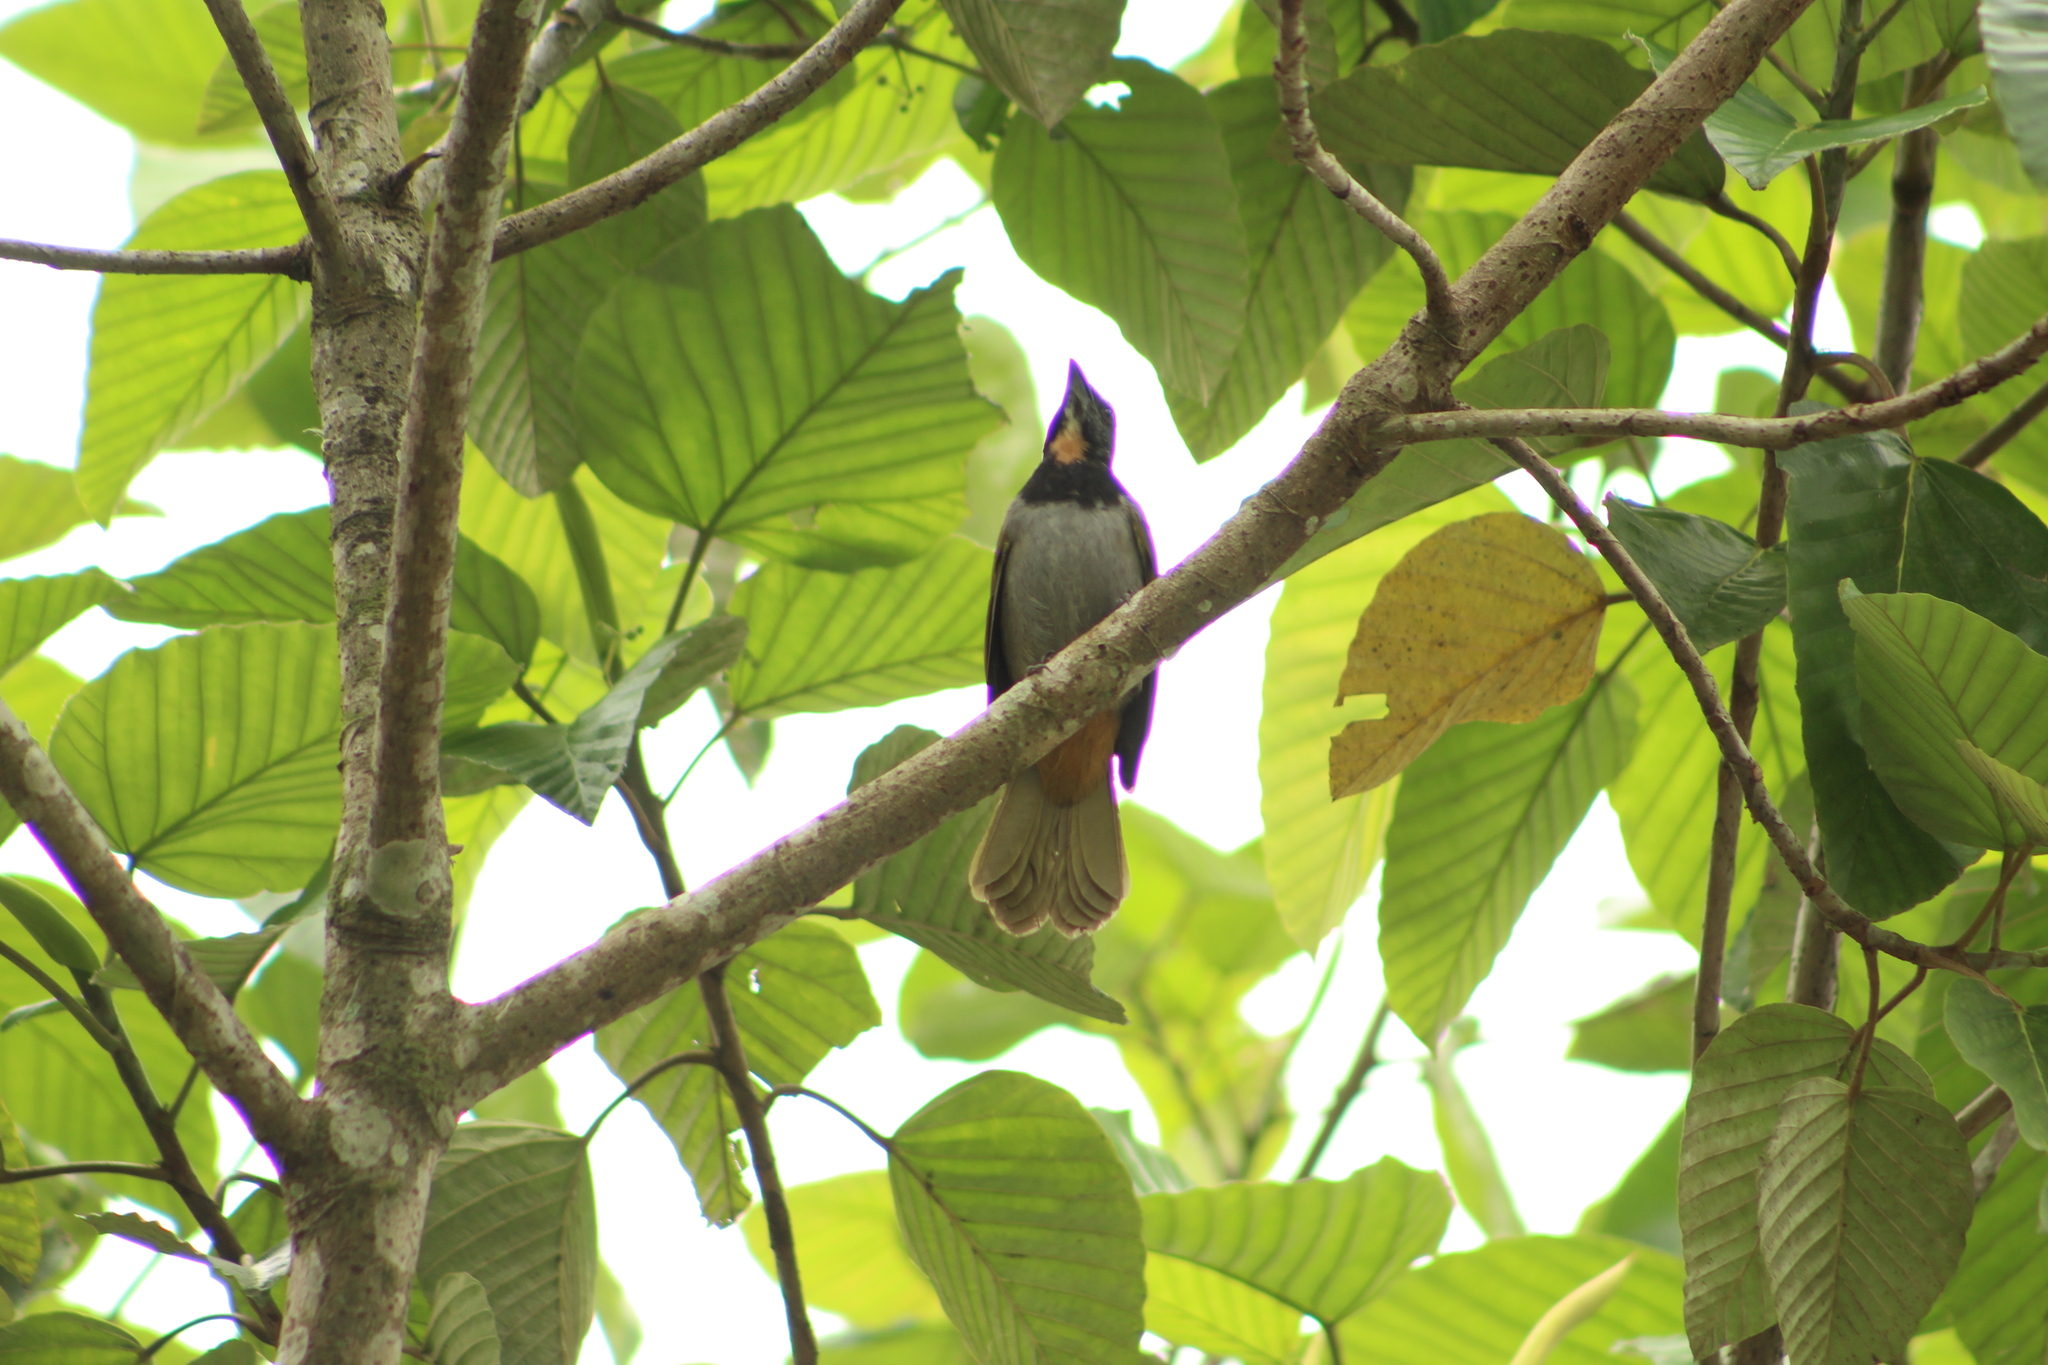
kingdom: Animalia
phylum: Chordata
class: Aves
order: Passeriformes
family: Thraupidae
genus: Saltator
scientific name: Saltator maximus
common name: Buff-throated saltator
